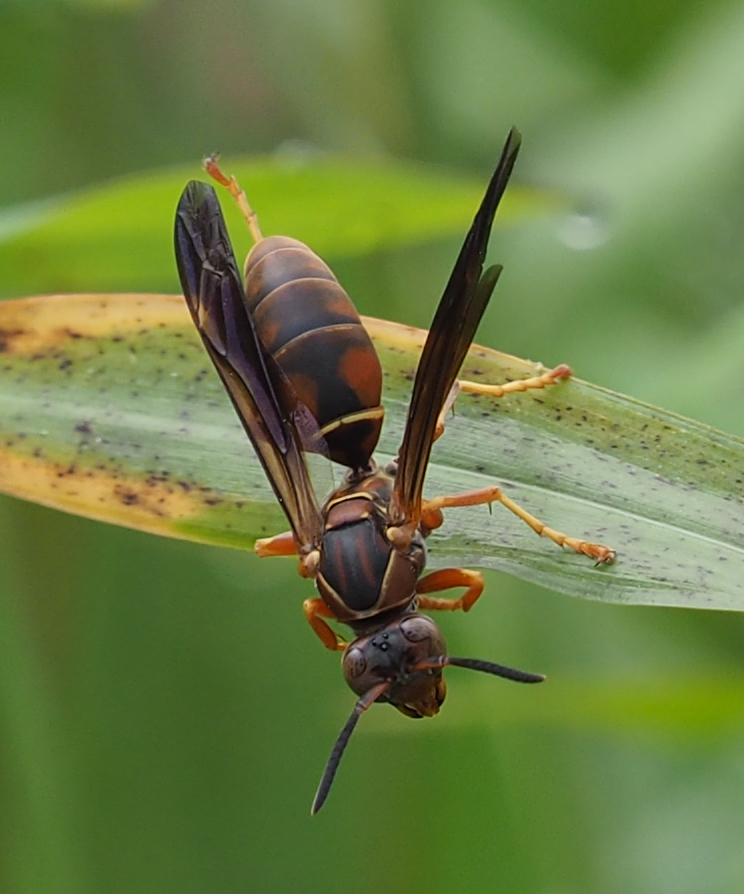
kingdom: Animalia
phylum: Arthropoda
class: Insecta
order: Hymenoptera
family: Eumenidae
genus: Polistes
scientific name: Polistes fuscatus
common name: Dark paper wasp
